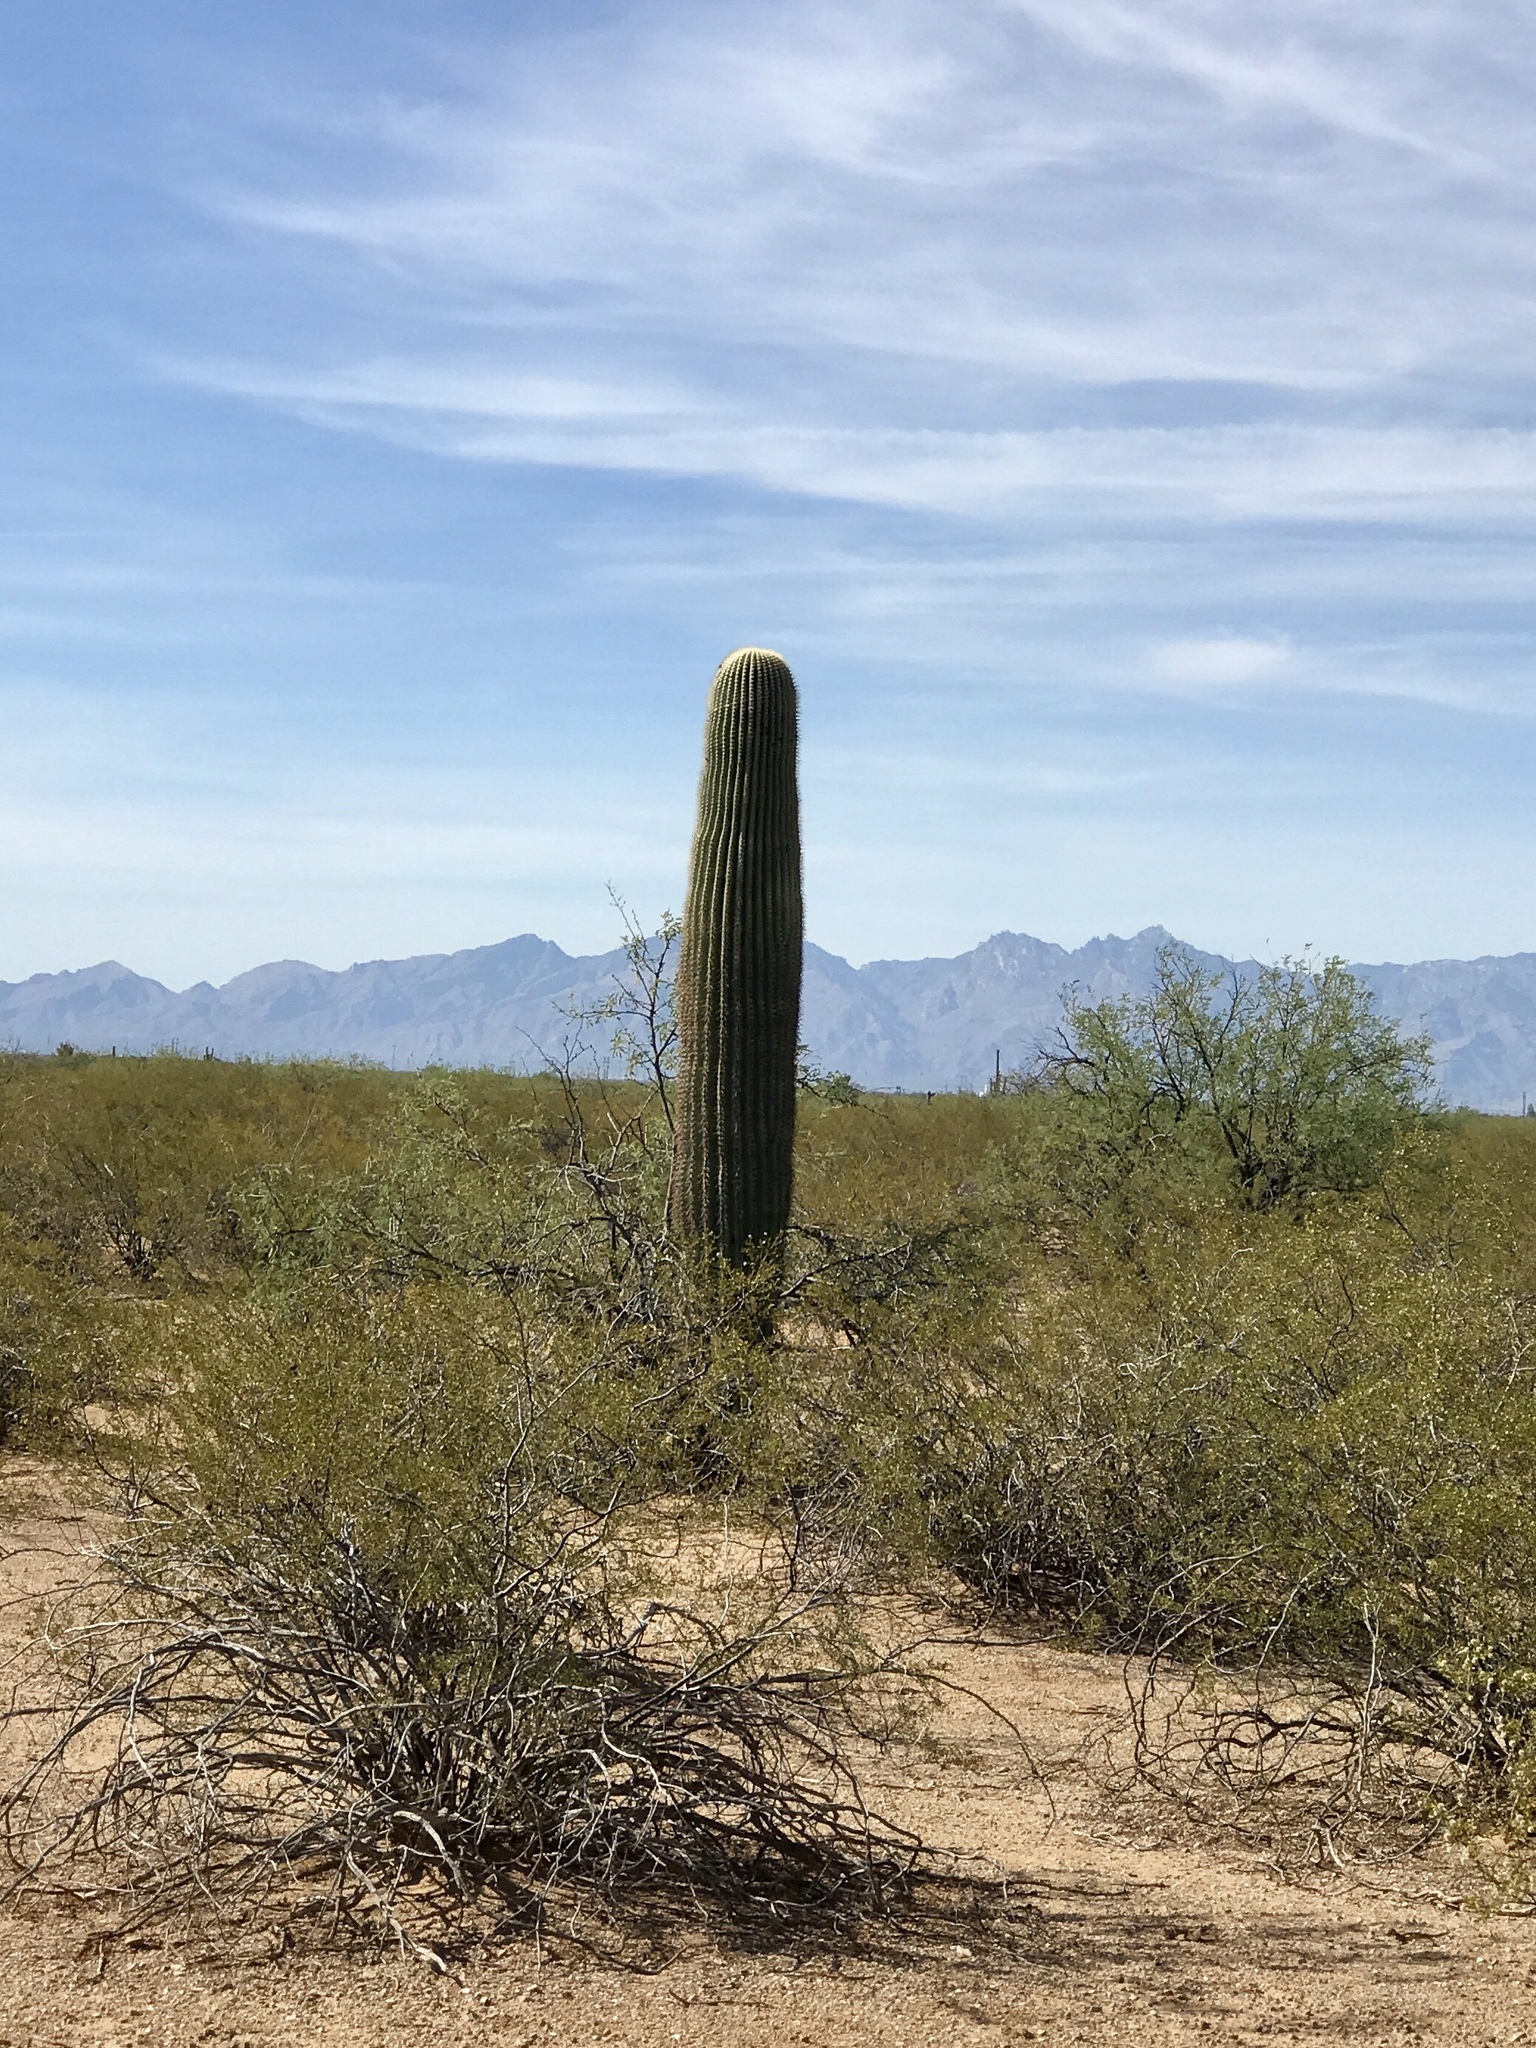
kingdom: Plantae
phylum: Tracheophyta
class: Magnoliopsida
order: Caryophyllales
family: Cactaceae
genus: Carnegiea
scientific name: Carnegiea gigantea
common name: Saguaro
